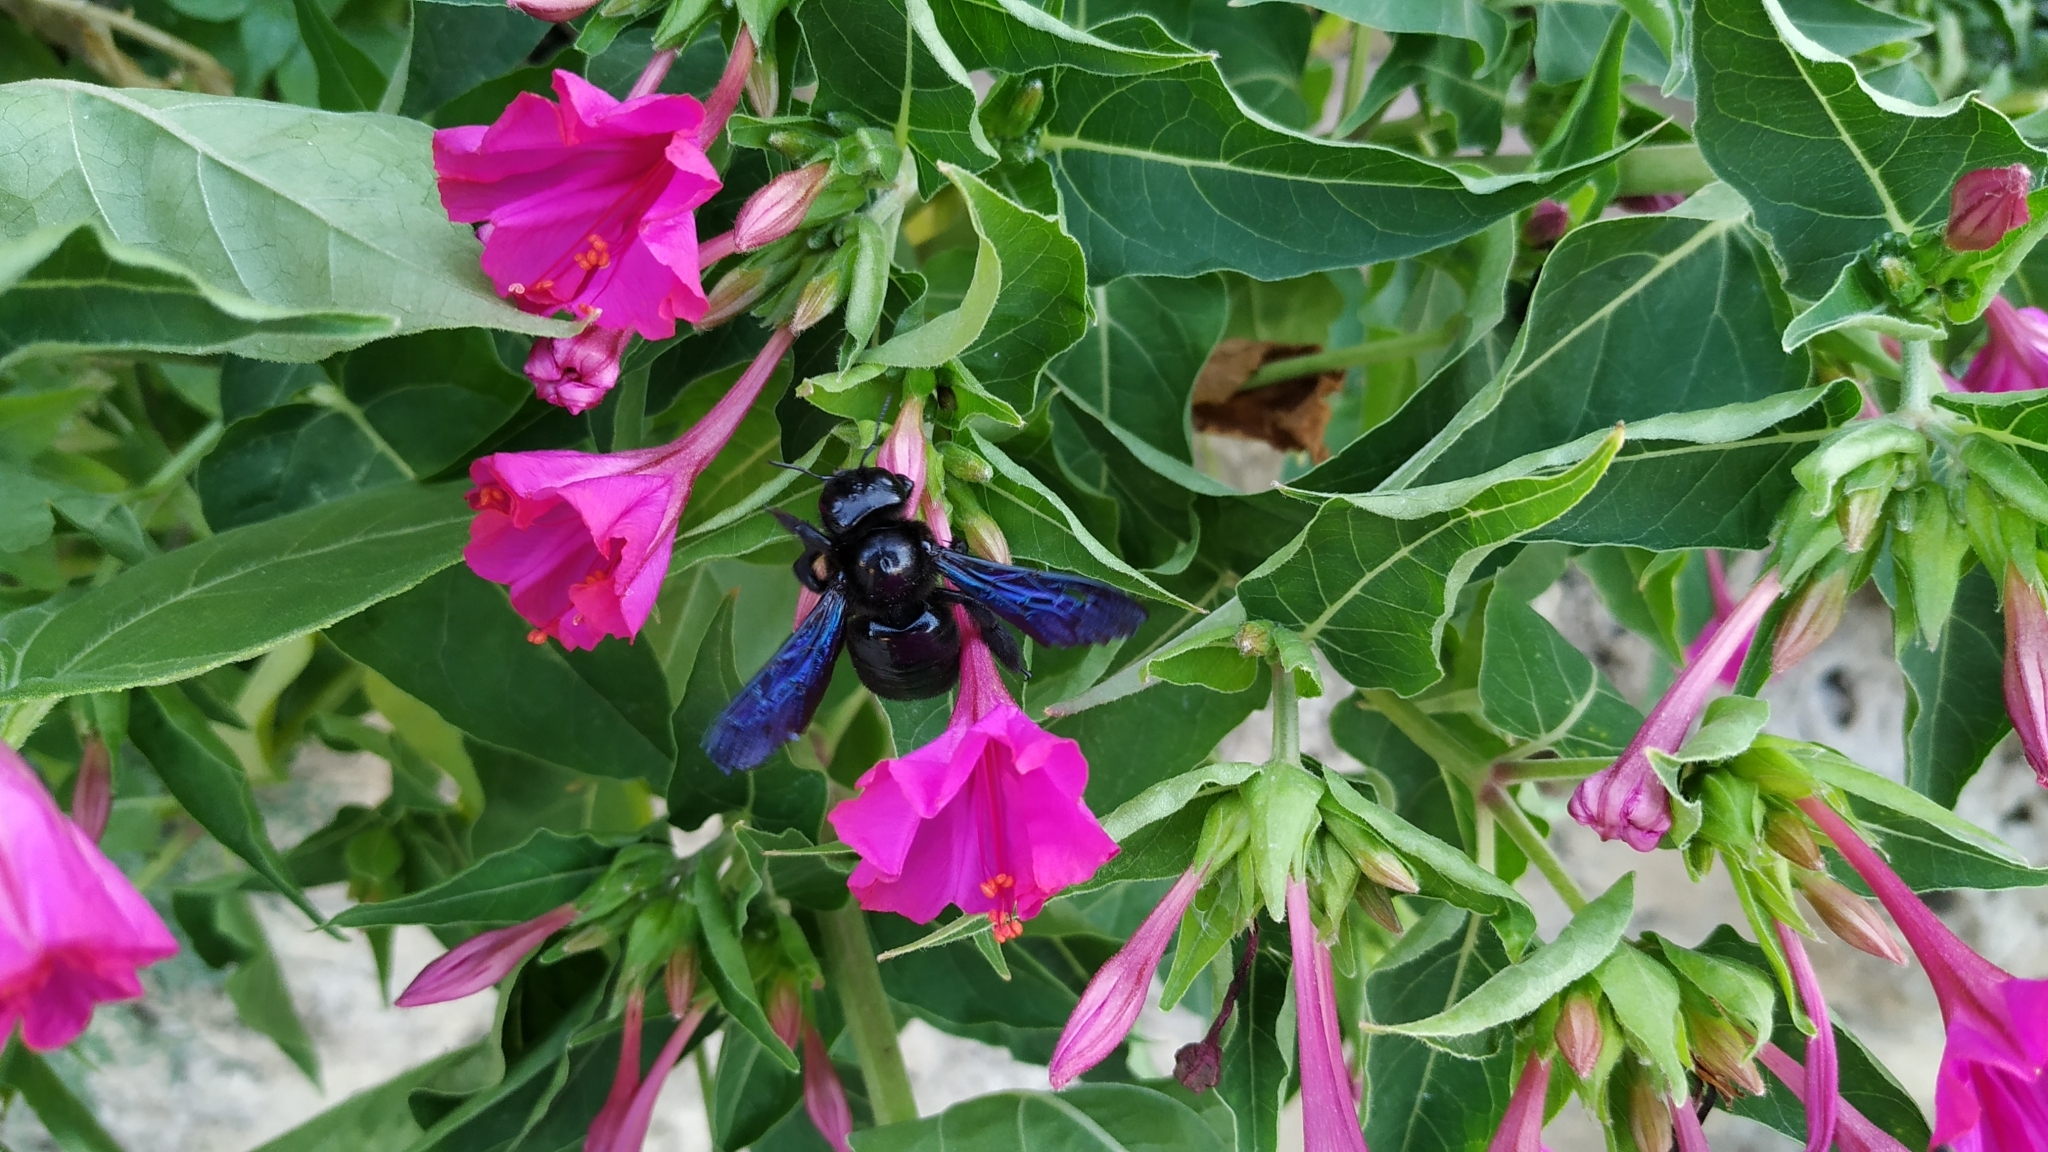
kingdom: Animalia
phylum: Arthropoda
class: Insecta
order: Hymenoptera
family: Apidae
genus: Xylocopa
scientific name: Xylocopa violacea
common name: Violet carpenter bee
